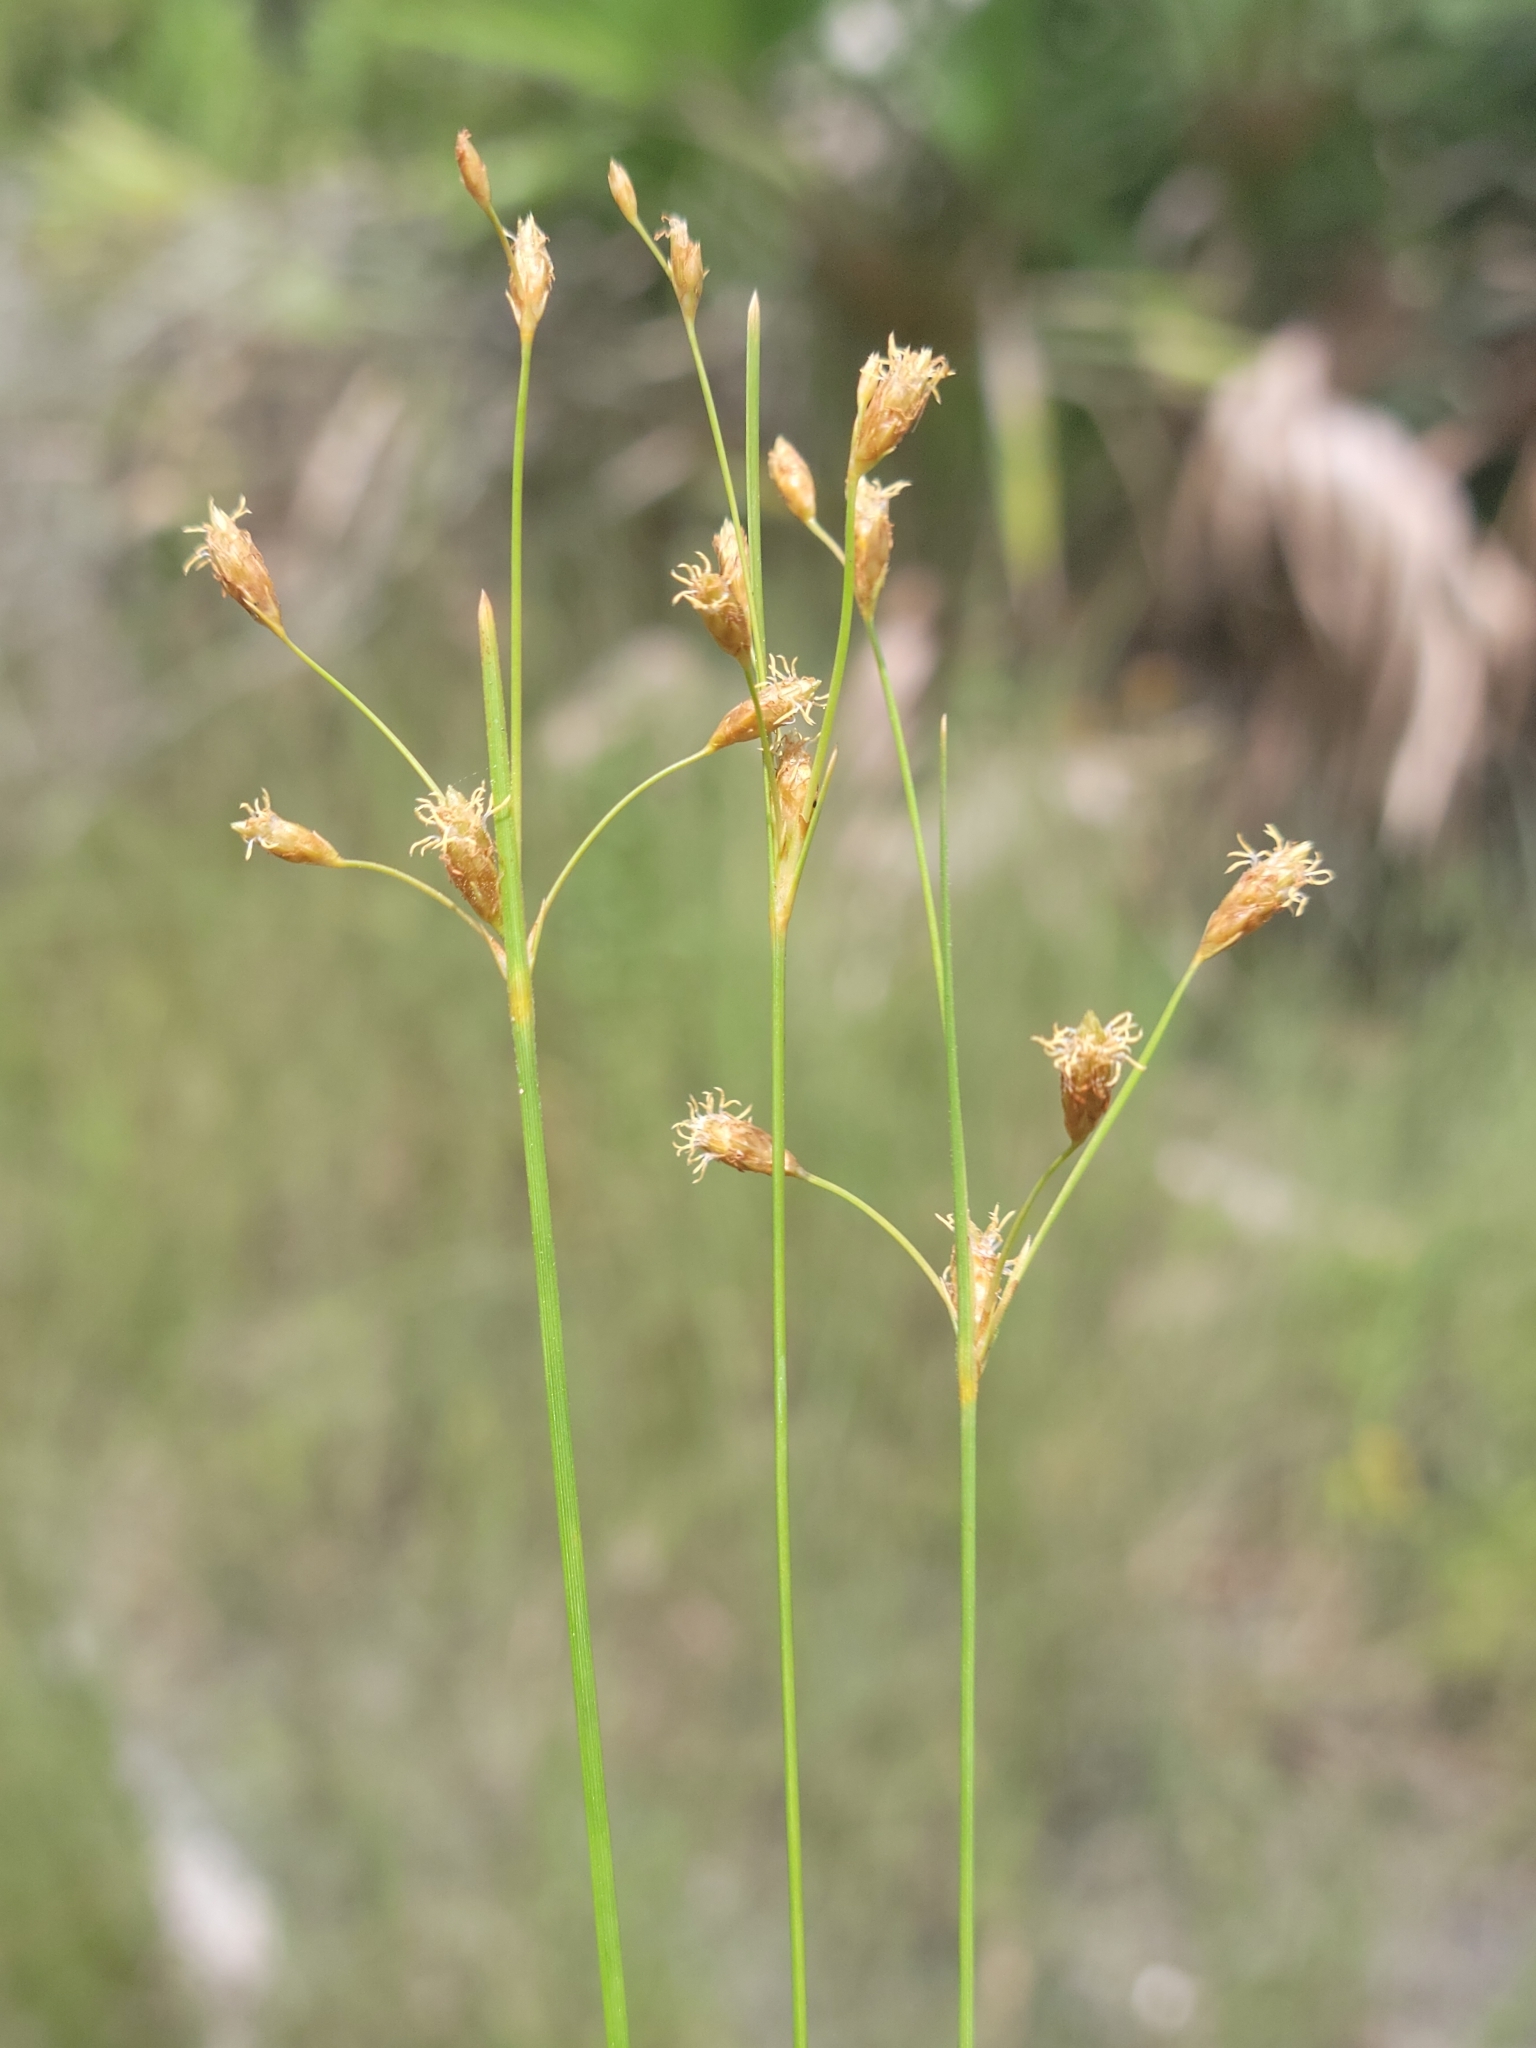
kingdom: Plantae
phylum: Tracheophyta
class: Liliopsida
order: Poales
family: Cyperaceae
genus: Fimbristylis
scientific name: Fimbristylis caroliniana
